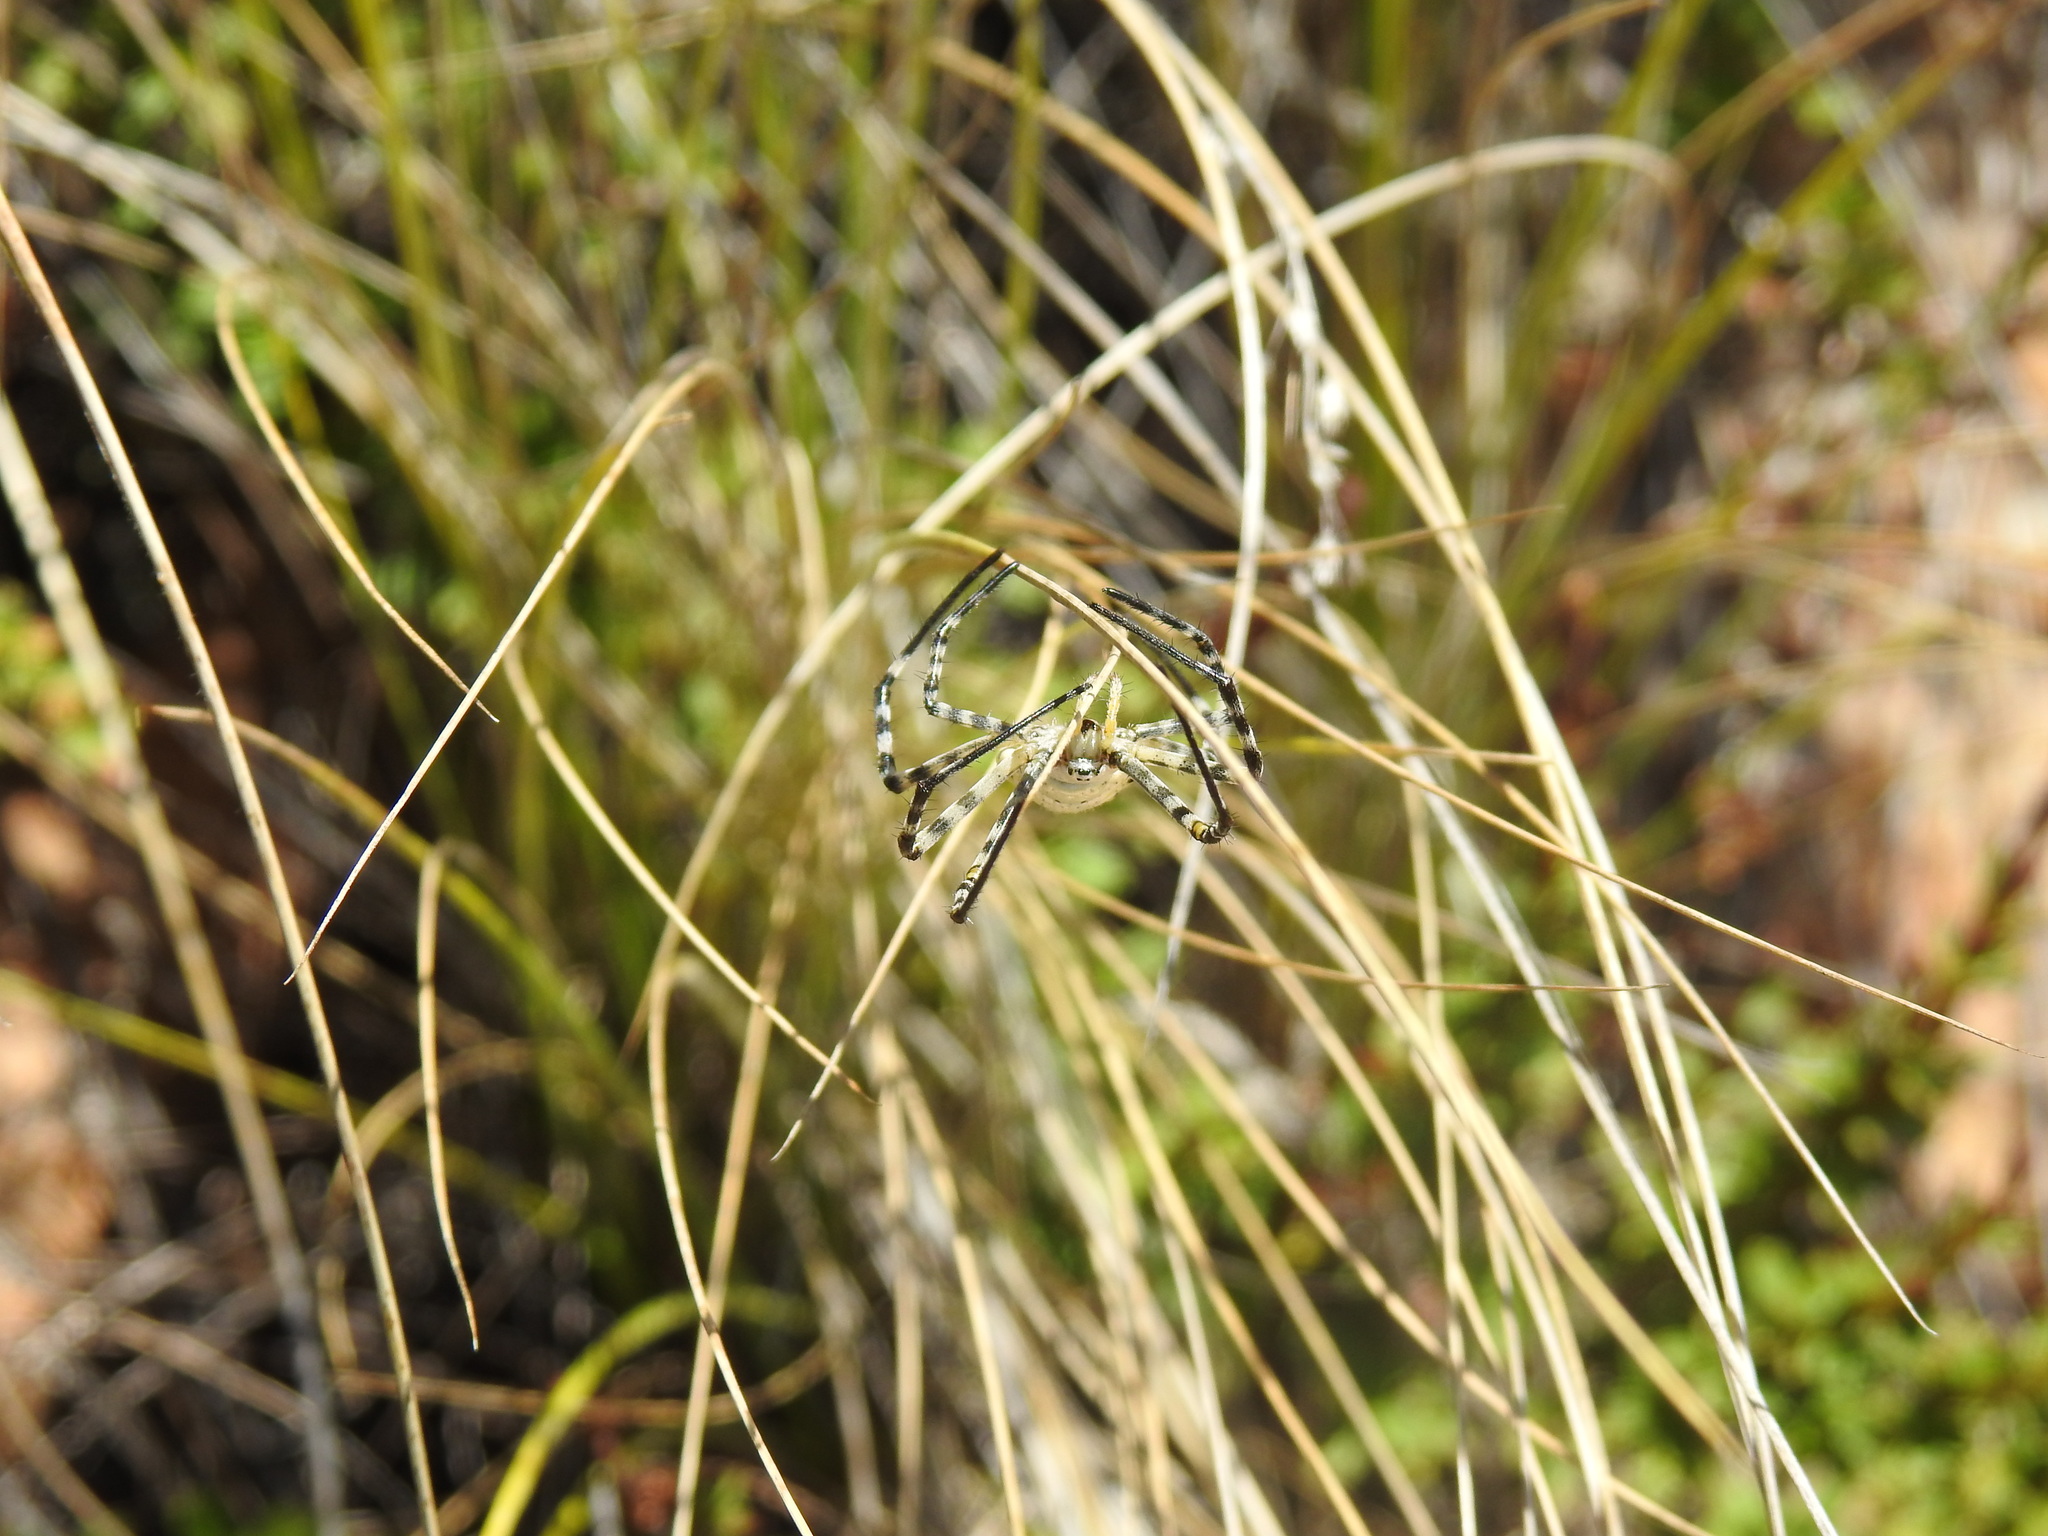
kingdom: Animalia
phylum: Arthropoda
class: Arachnida
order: Araneae
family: Araneidae
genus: Argiope
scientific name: Argiope lobata
